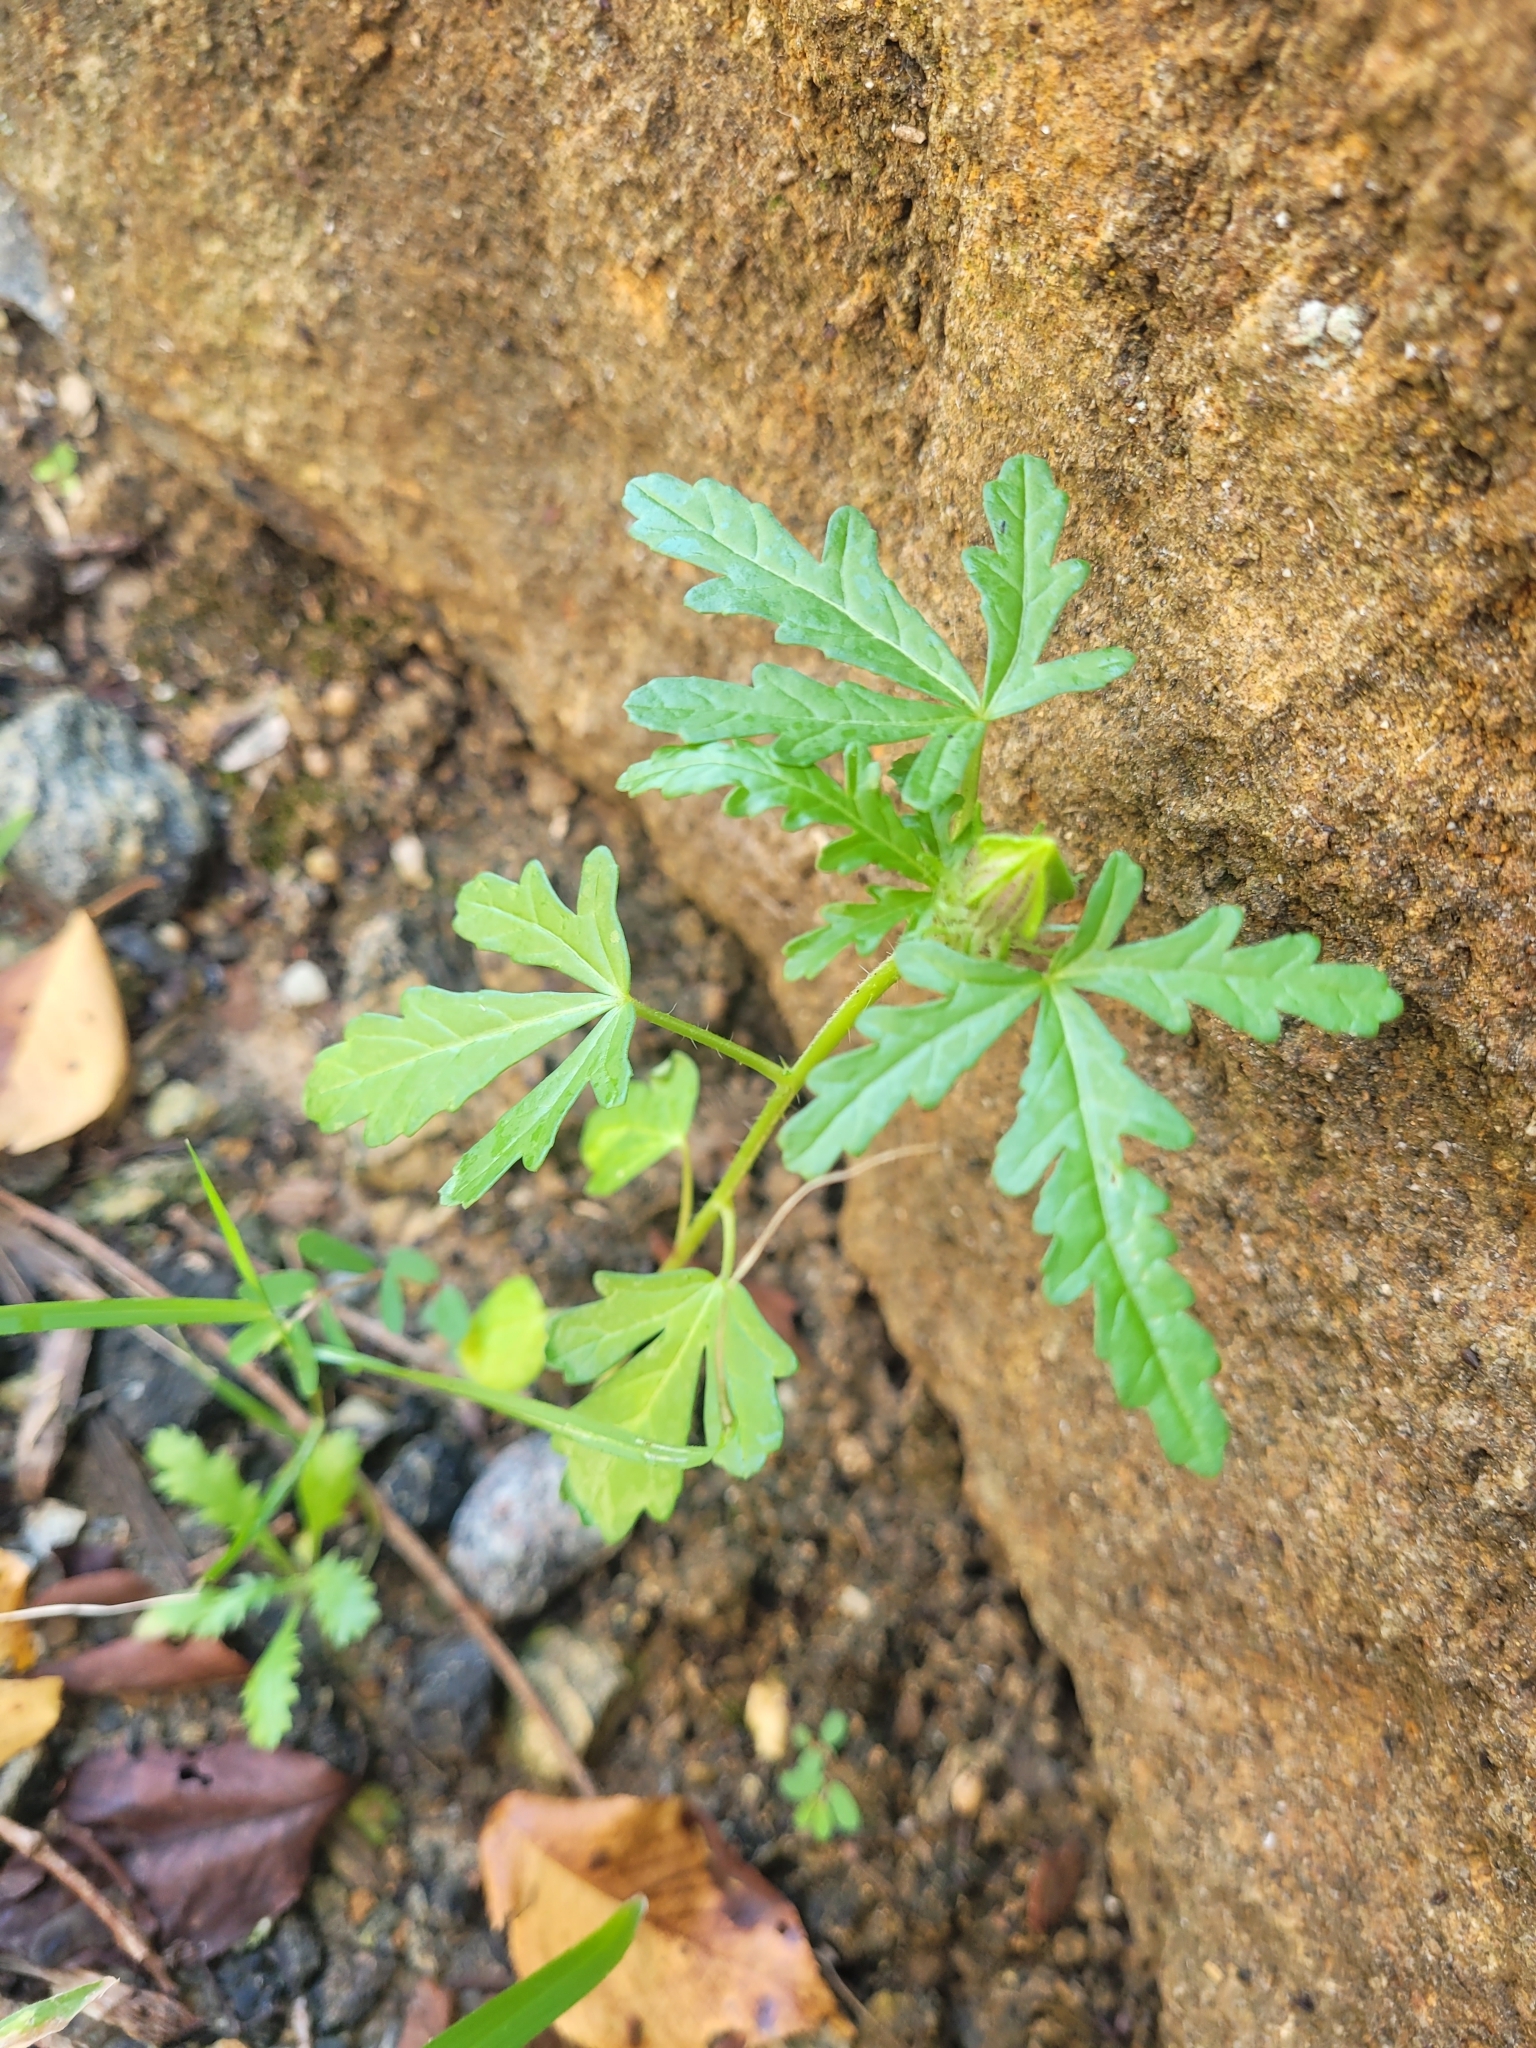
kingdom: Plantae
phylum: Tracheophyta
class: Magnoliopsida
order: Malvales
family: Malvaceae
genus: Hibiscus
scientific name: Hibiscus trionum
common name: Bladder ketmia
